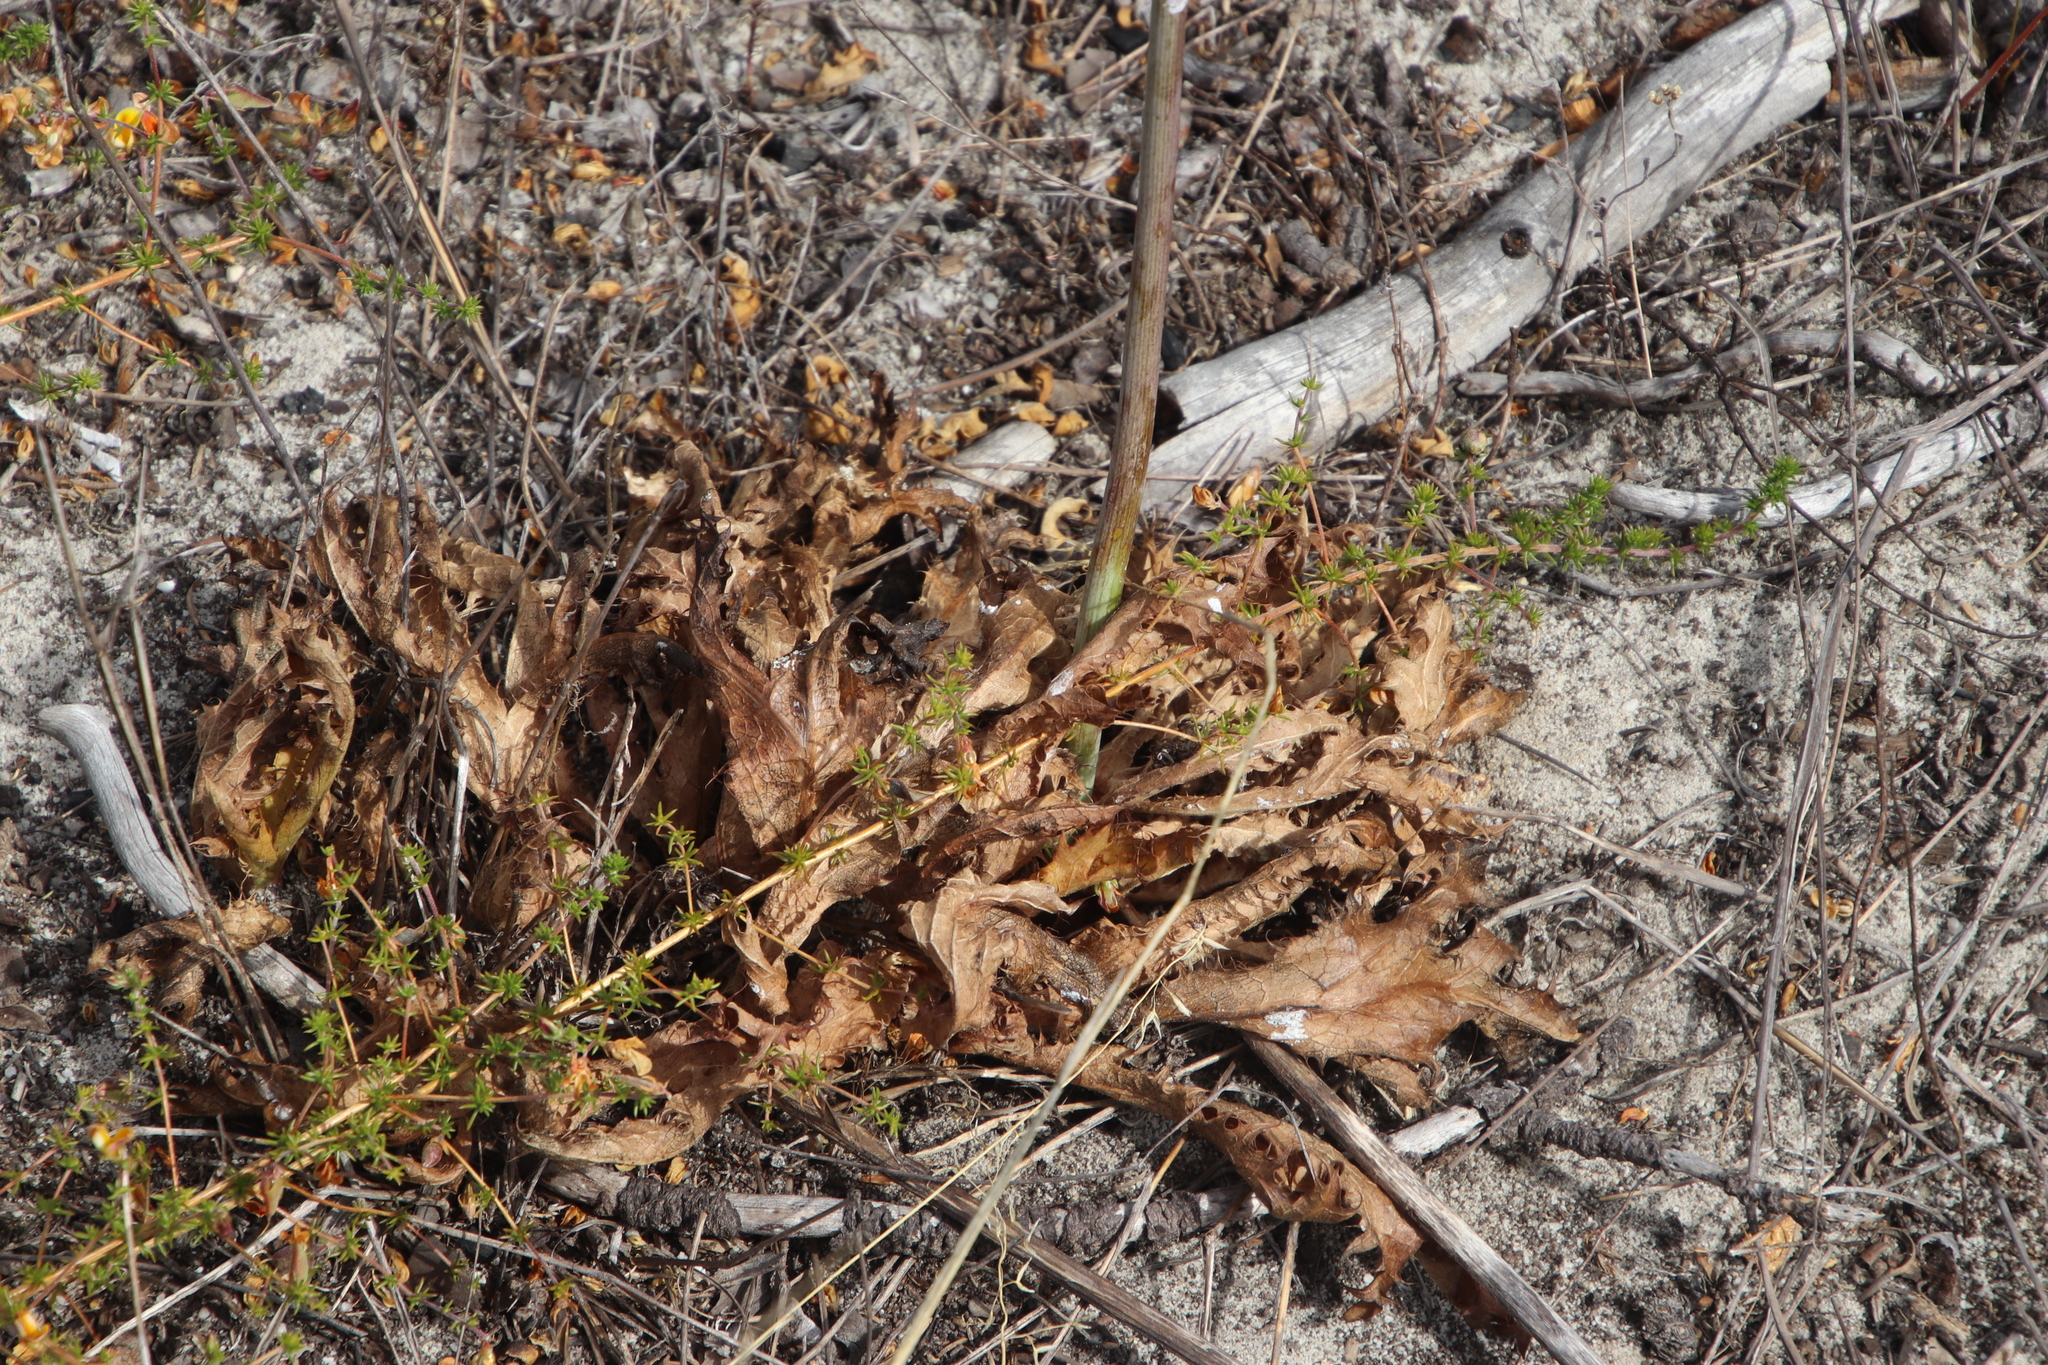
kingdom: Plantae
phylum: Tracheophyta
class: Magnoliopsida
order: Apiales
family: Apiaceae
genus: Lichtensteinia
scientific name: Lichtensteinia lacera
